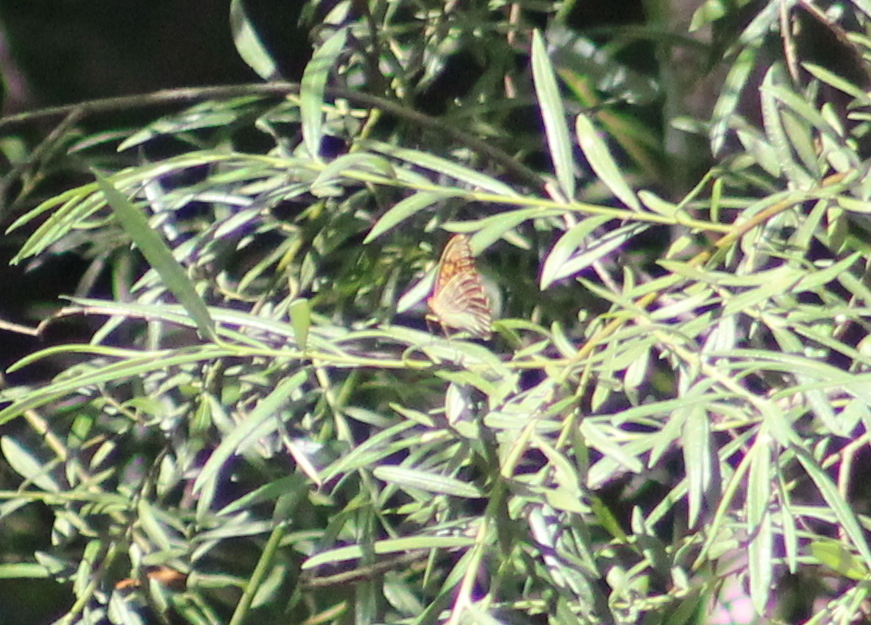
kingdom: Animalia
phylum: Arthropoda
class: Insecta
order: Lepidoptera
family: Nymphalidae
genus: Argynnis
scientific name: Argynnis paphia
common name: Silver-washed fritillary
